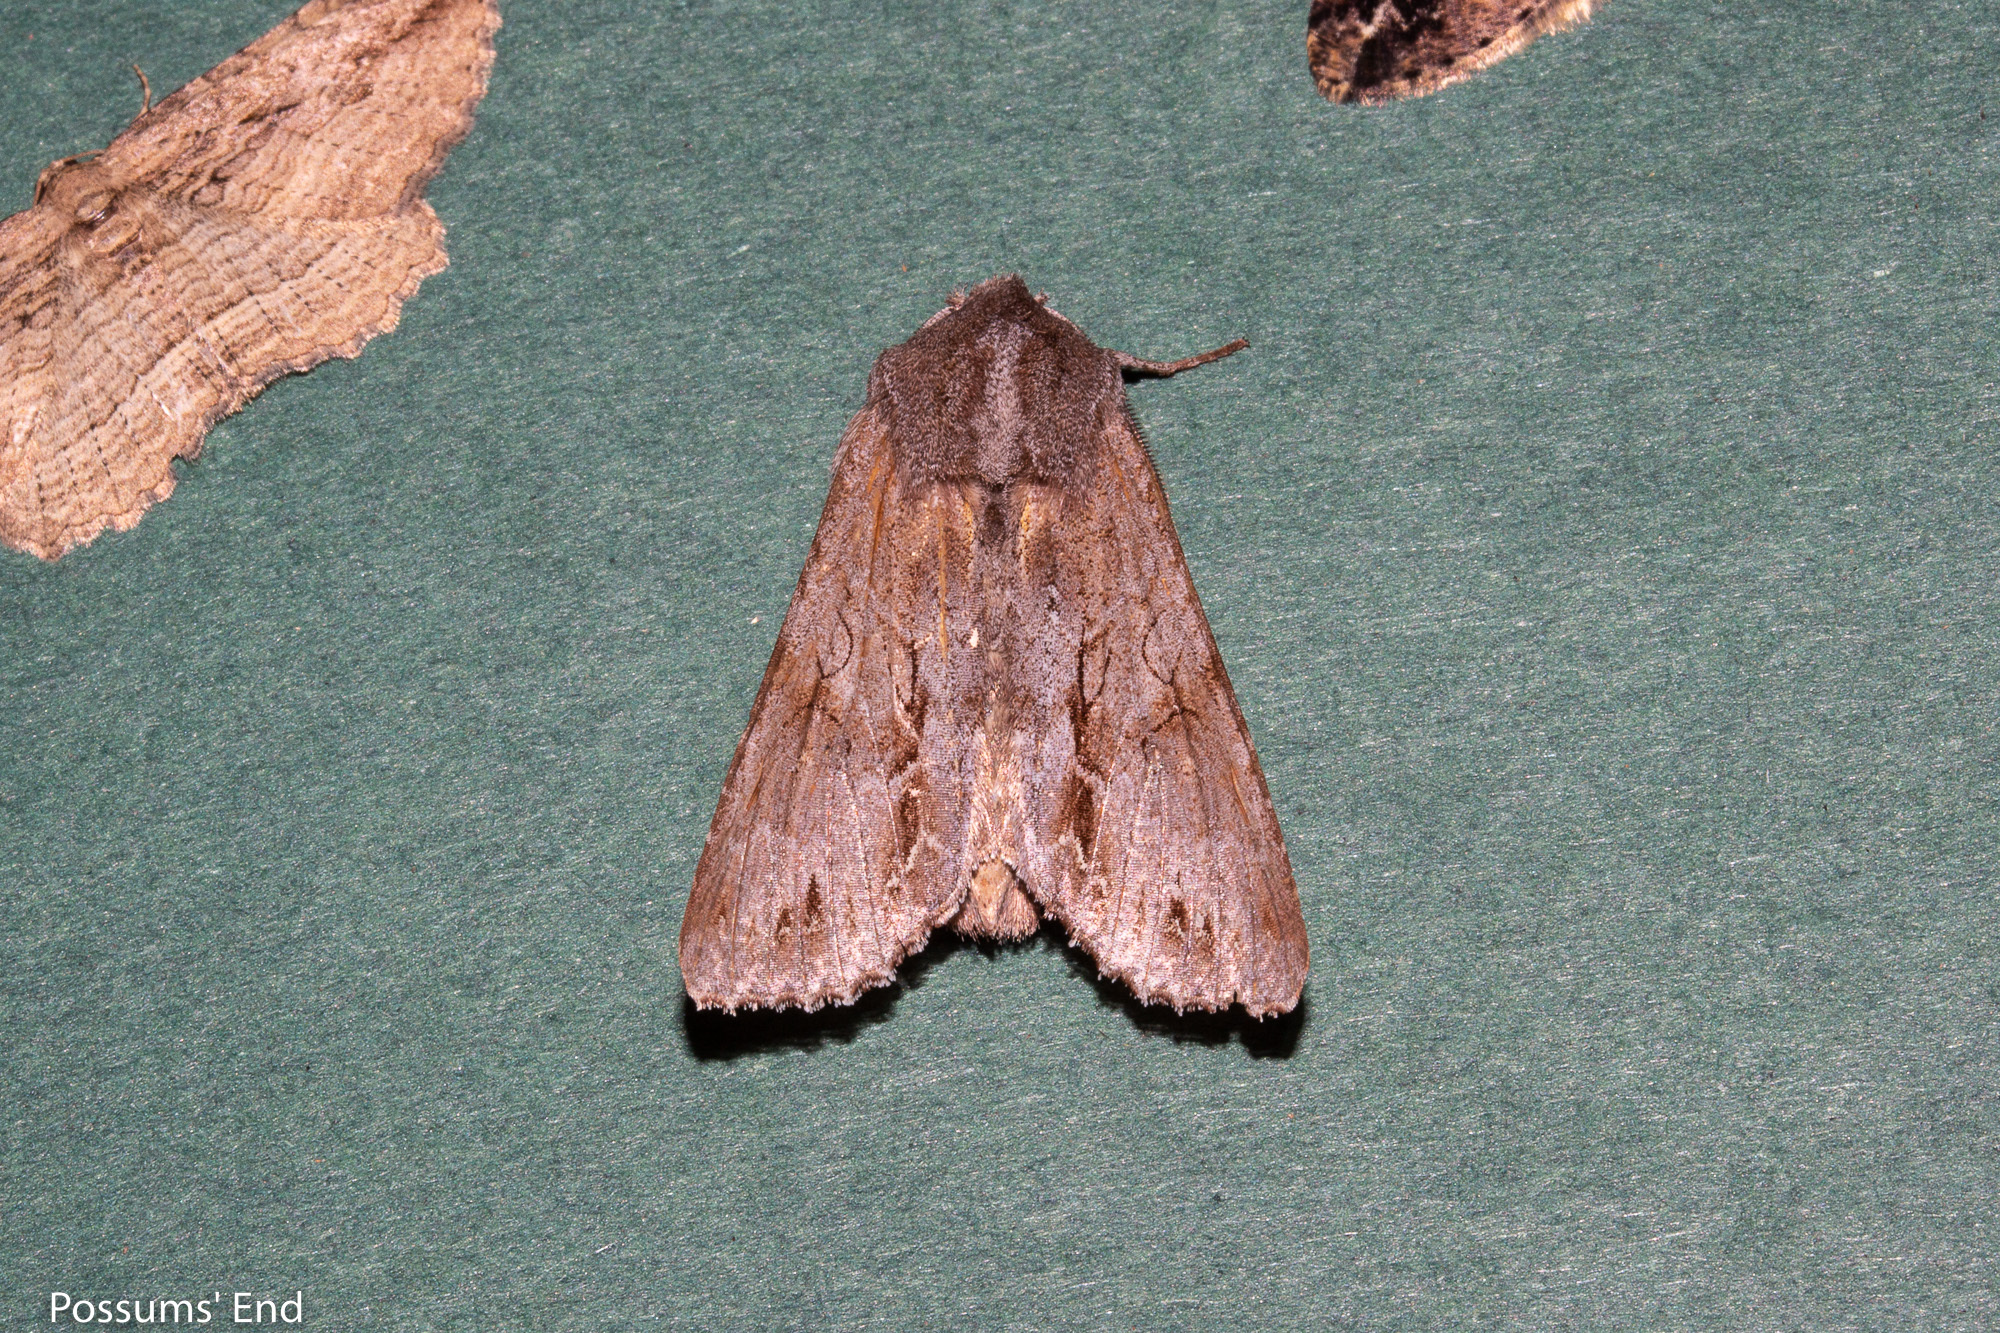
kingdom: Animalia
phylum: Arthropoda
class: Insecta
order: Lepidoptera
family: Noctuidae
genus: Ichneutica
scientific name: Ichneutica
